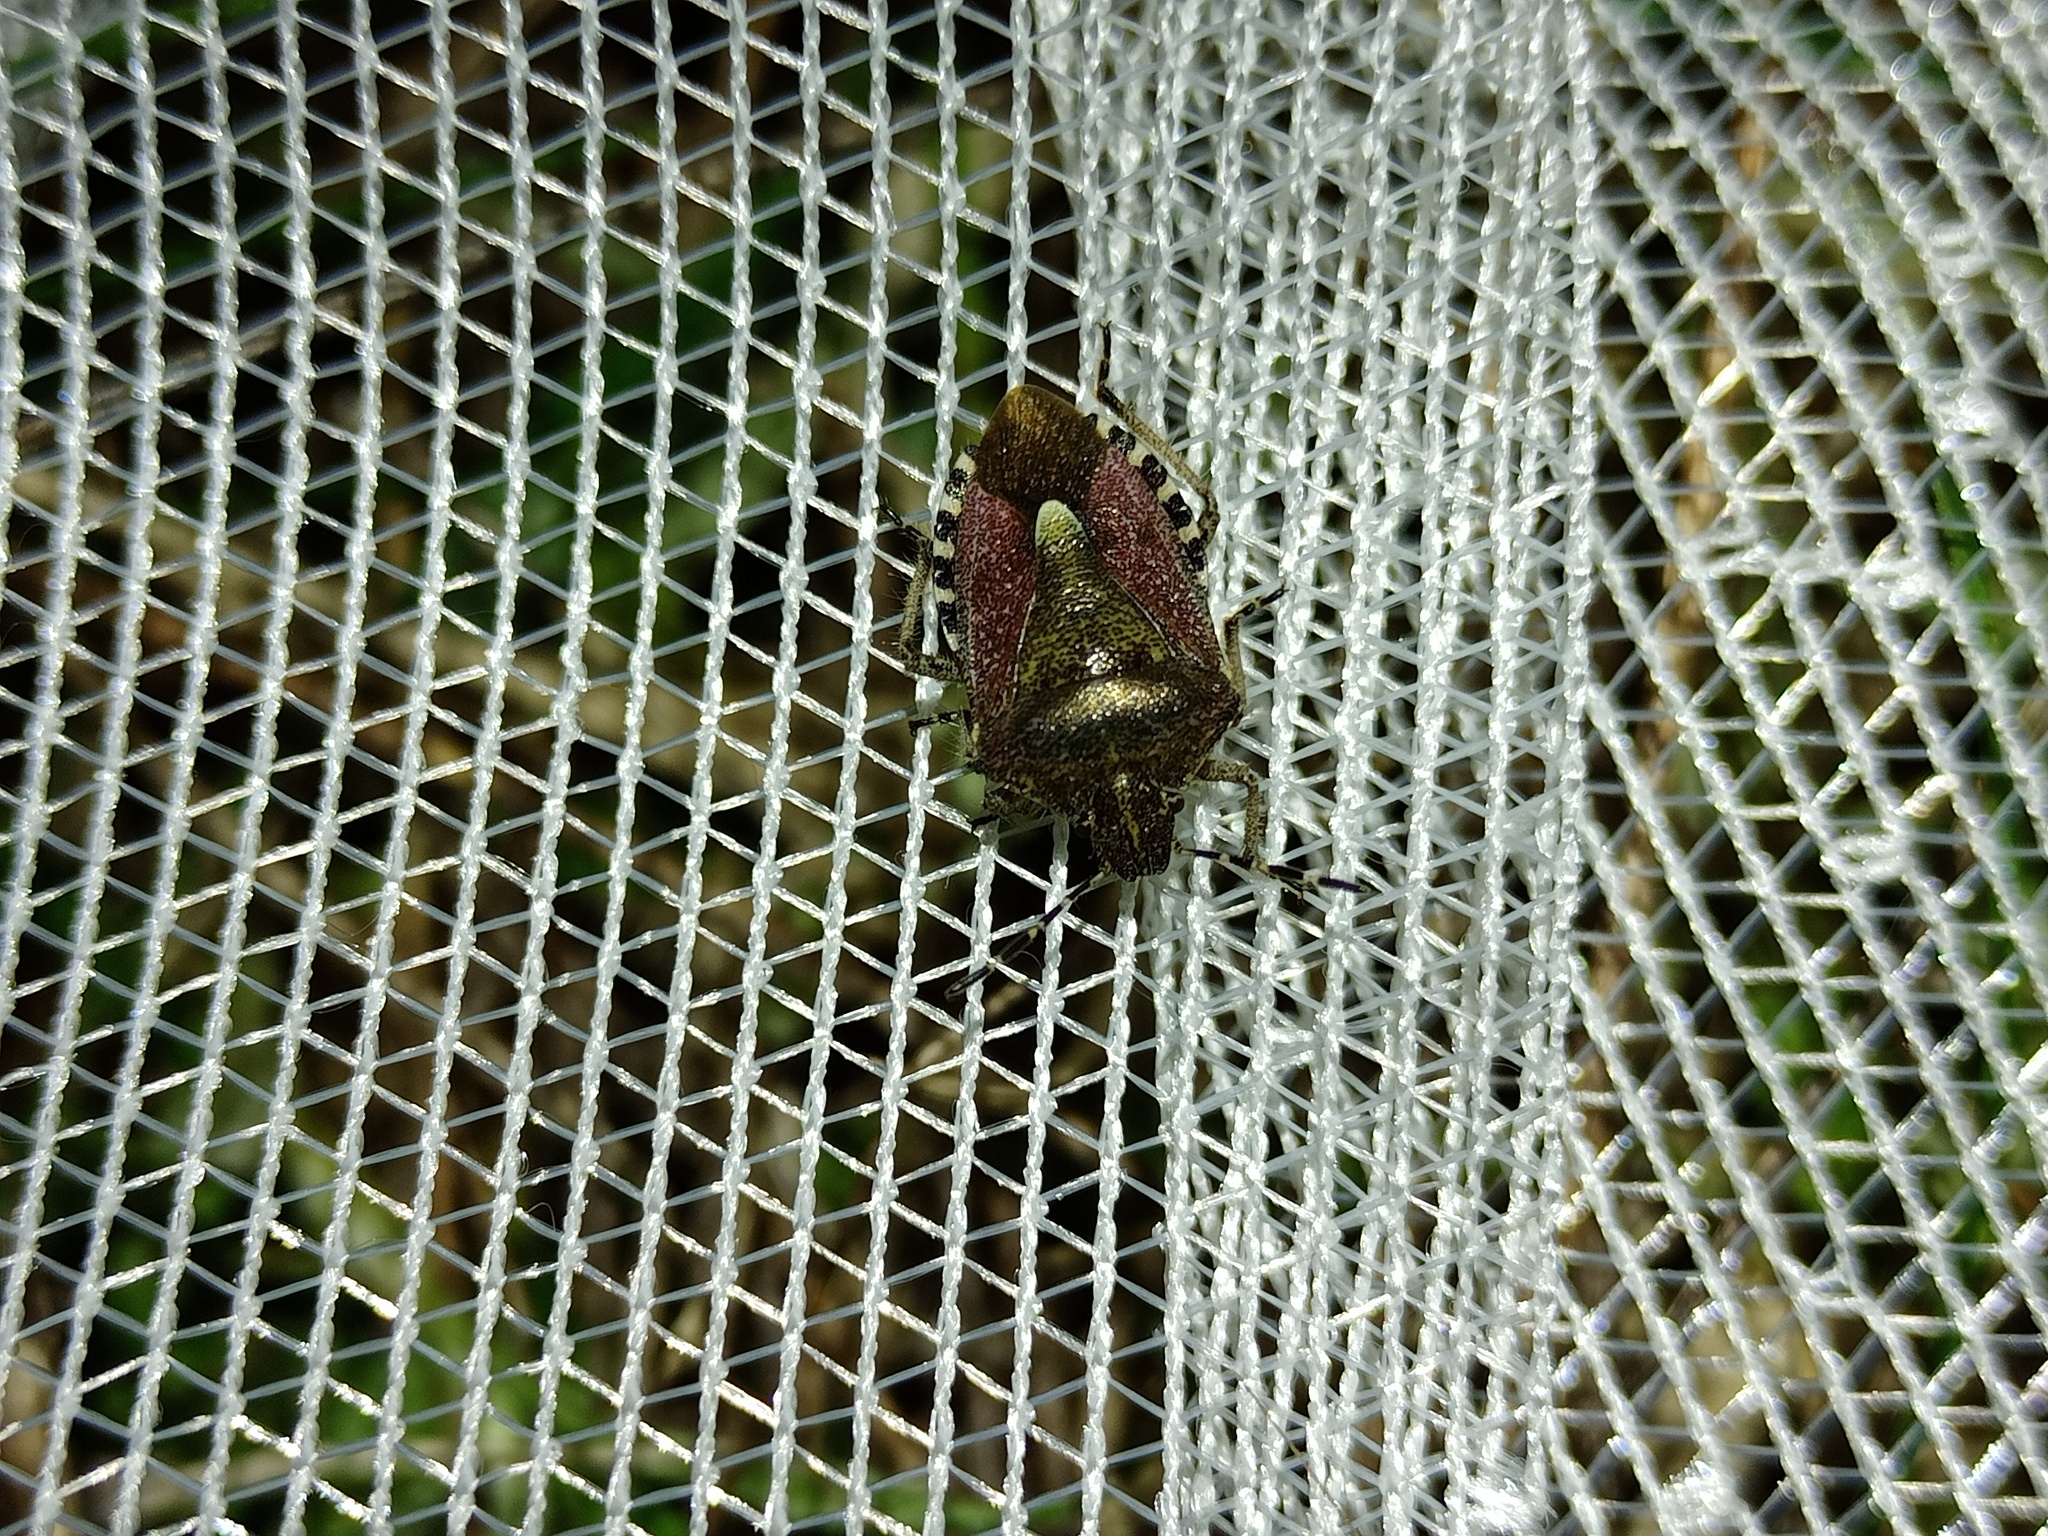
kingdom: Animalia
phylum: Arthropoda
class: Insecta
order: Hemiptera
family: Pentatomidae
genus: Dolycoris
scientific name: Dolycoris baccarum
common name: Sloe bug
